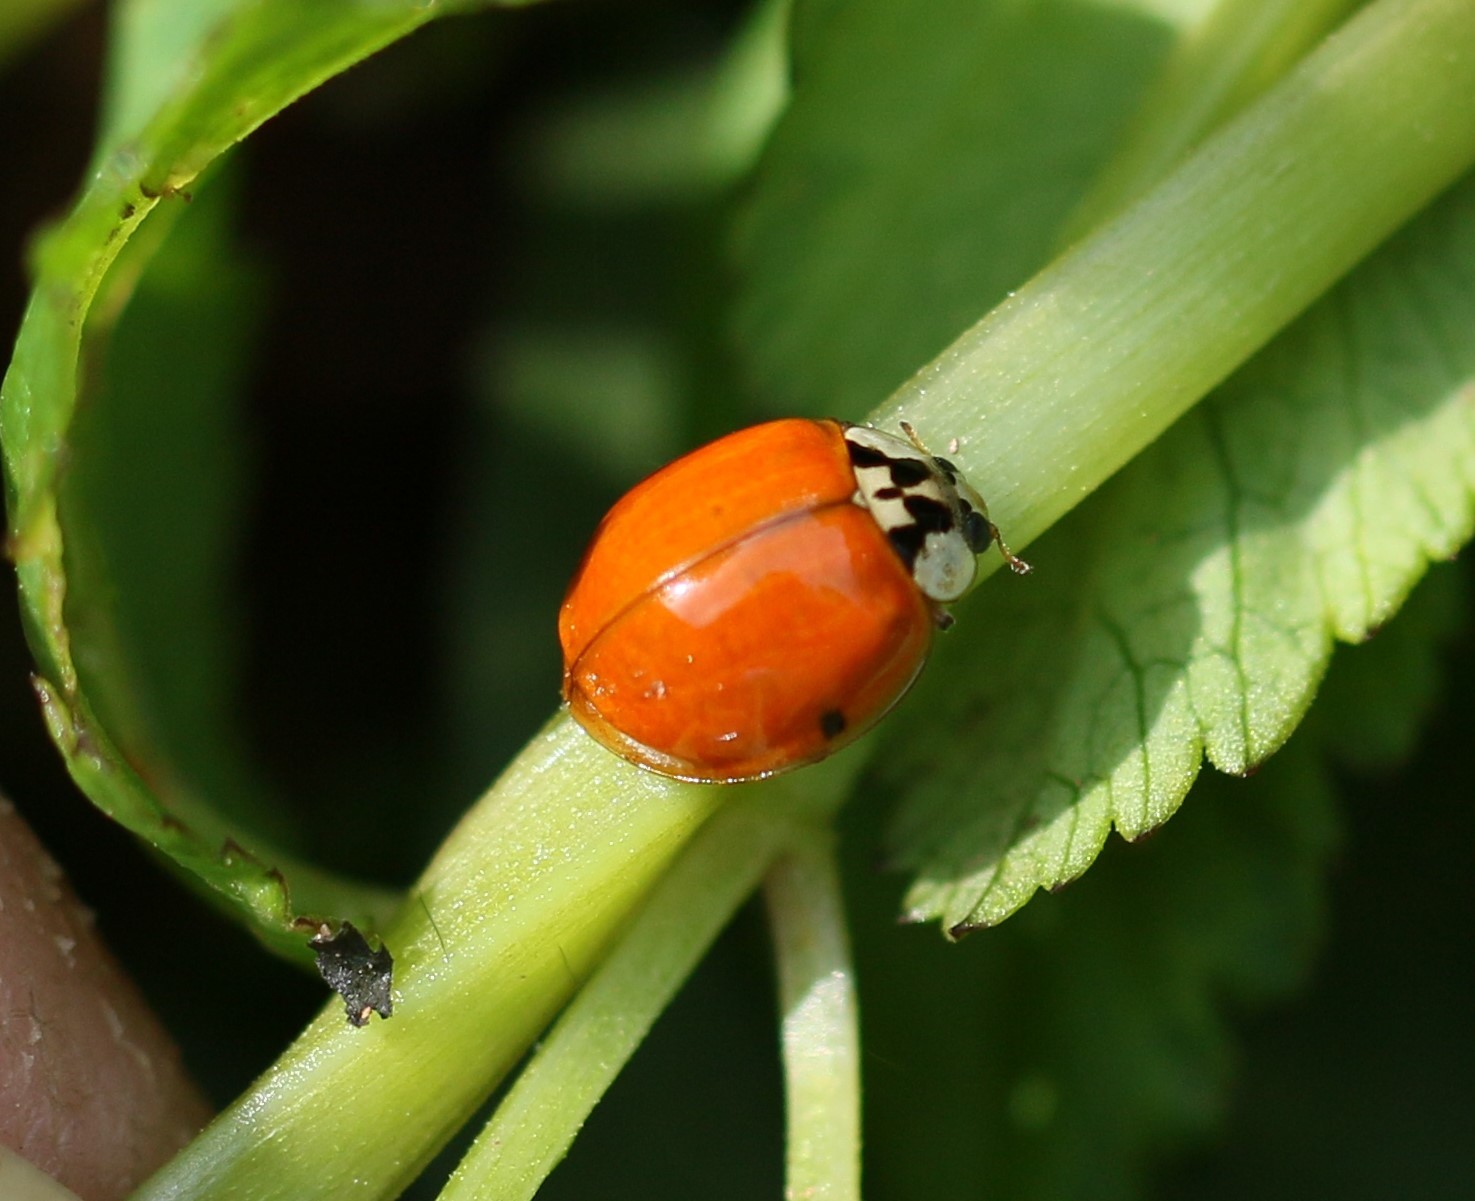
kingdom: Animalia
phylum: Arthropoda
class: Insecta
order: Coleoptera
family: Coccinellidae
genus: Harmonia
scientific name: Harmonia axyridis
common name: Harlequin ladybird
